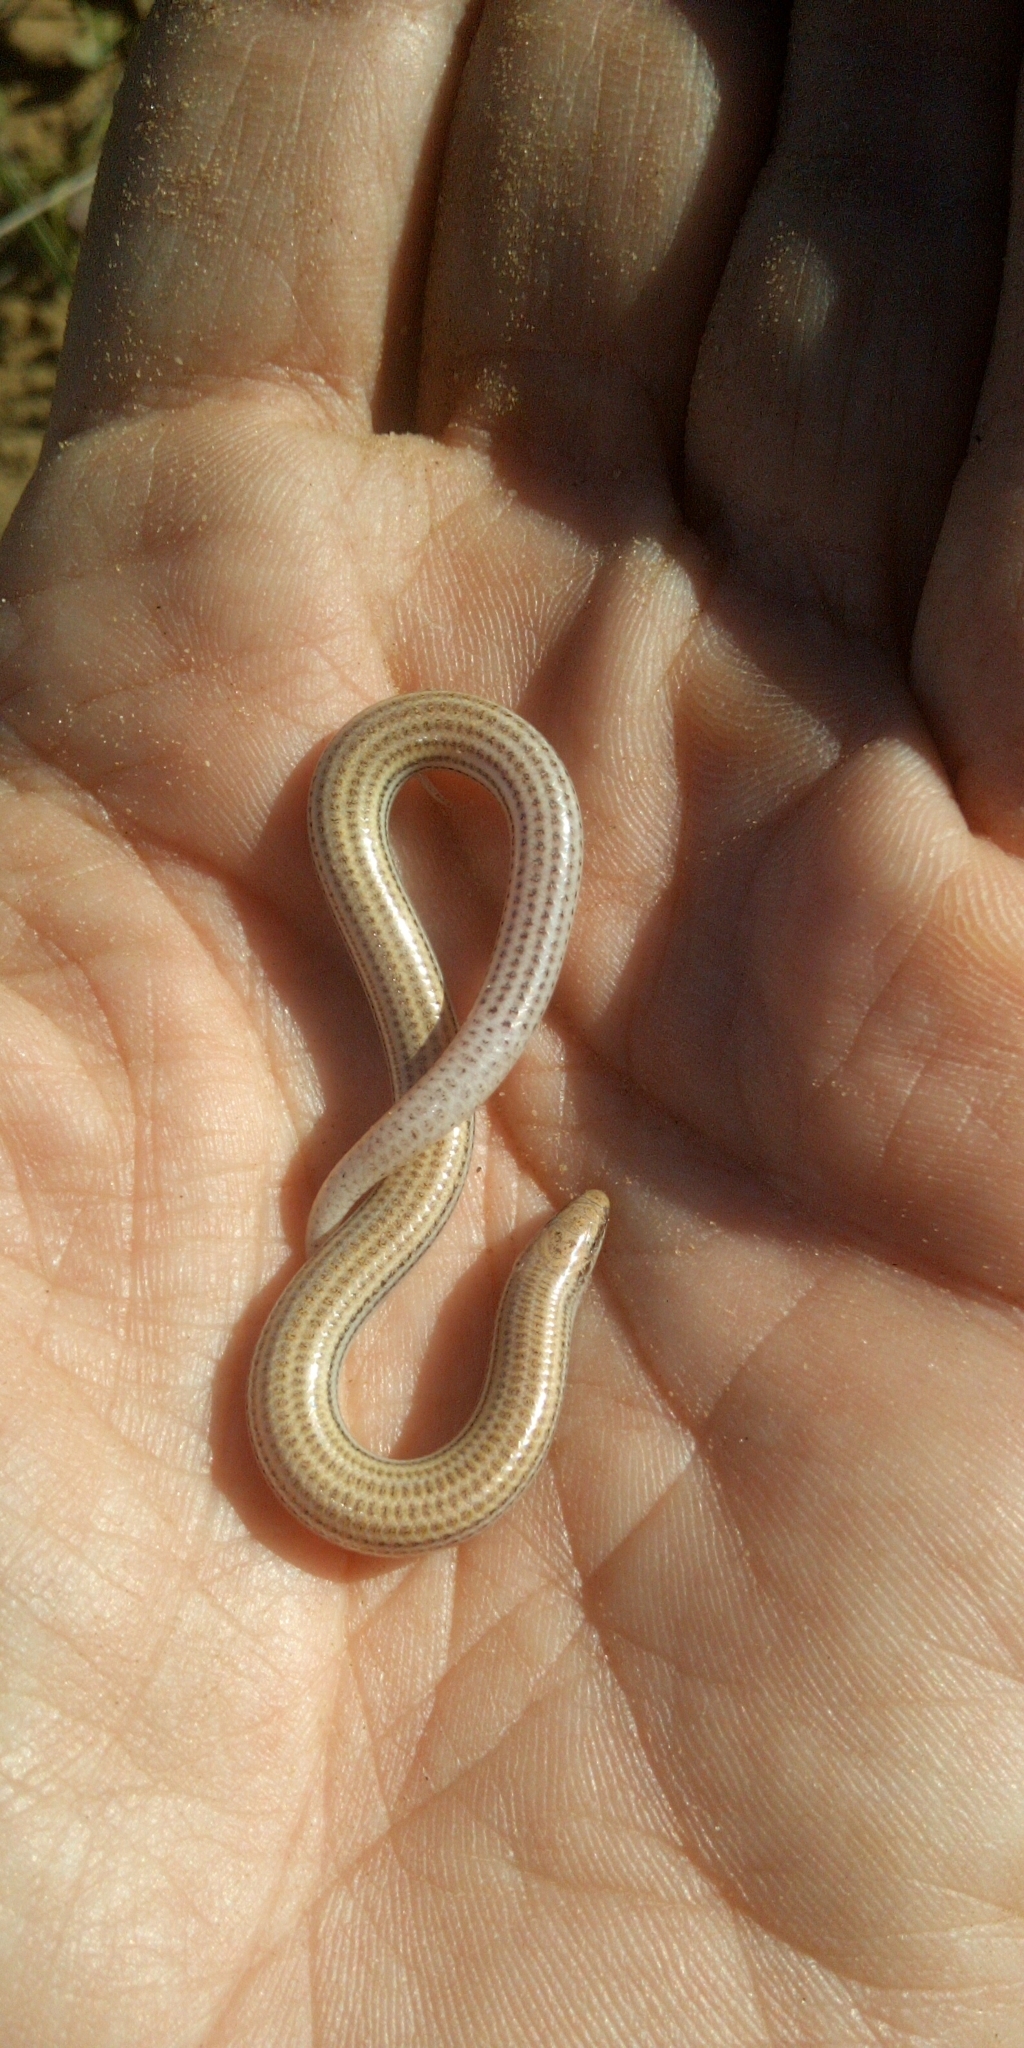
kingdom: Animalia
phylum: Chordata
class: Squamata
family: Scincidae
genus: Scelotes
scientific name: Scelotes bipes
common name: Common burrowing skink
